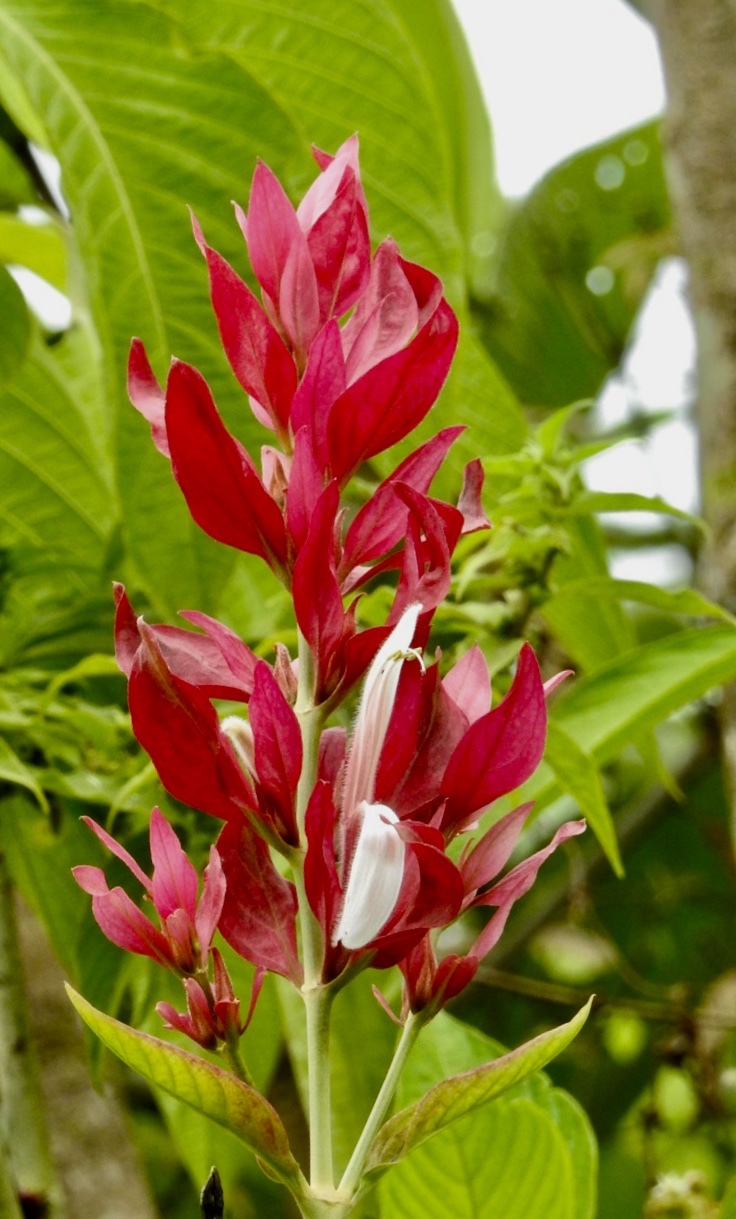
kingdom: Plantae
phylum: Tracheophyta
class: Magnoliopsida
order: Lamiales
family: Acanthaceae
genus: Megaskepasma
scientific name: Megaskepasma erythrochlamys
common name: Brazilian red-cloak
